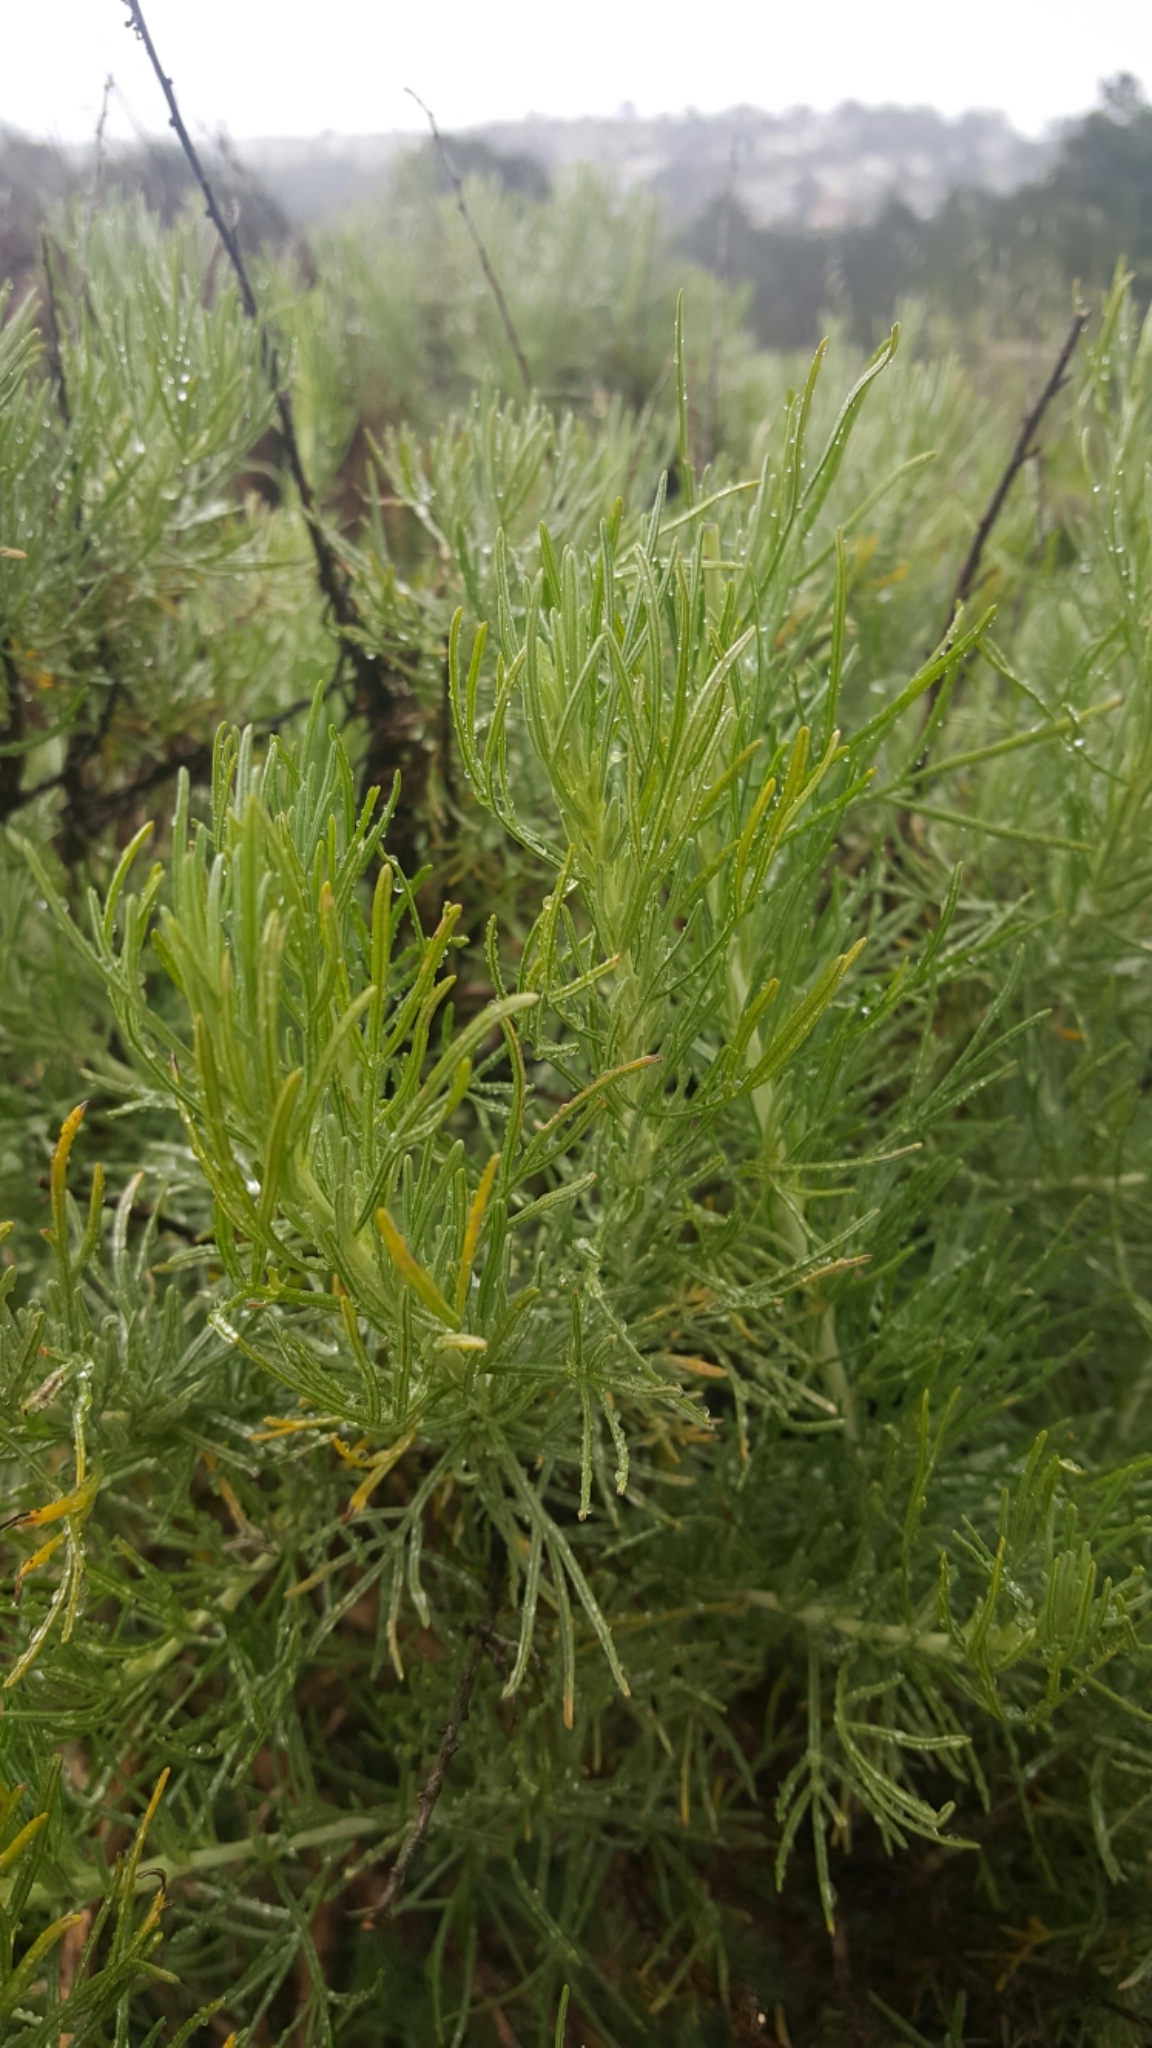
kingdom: Plantae
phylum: Tracheophyta
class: Magnoliopsida
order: Asterales
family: Asteraceae
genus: Artemisia
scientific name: Artemisia californica
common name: California sagebrush
